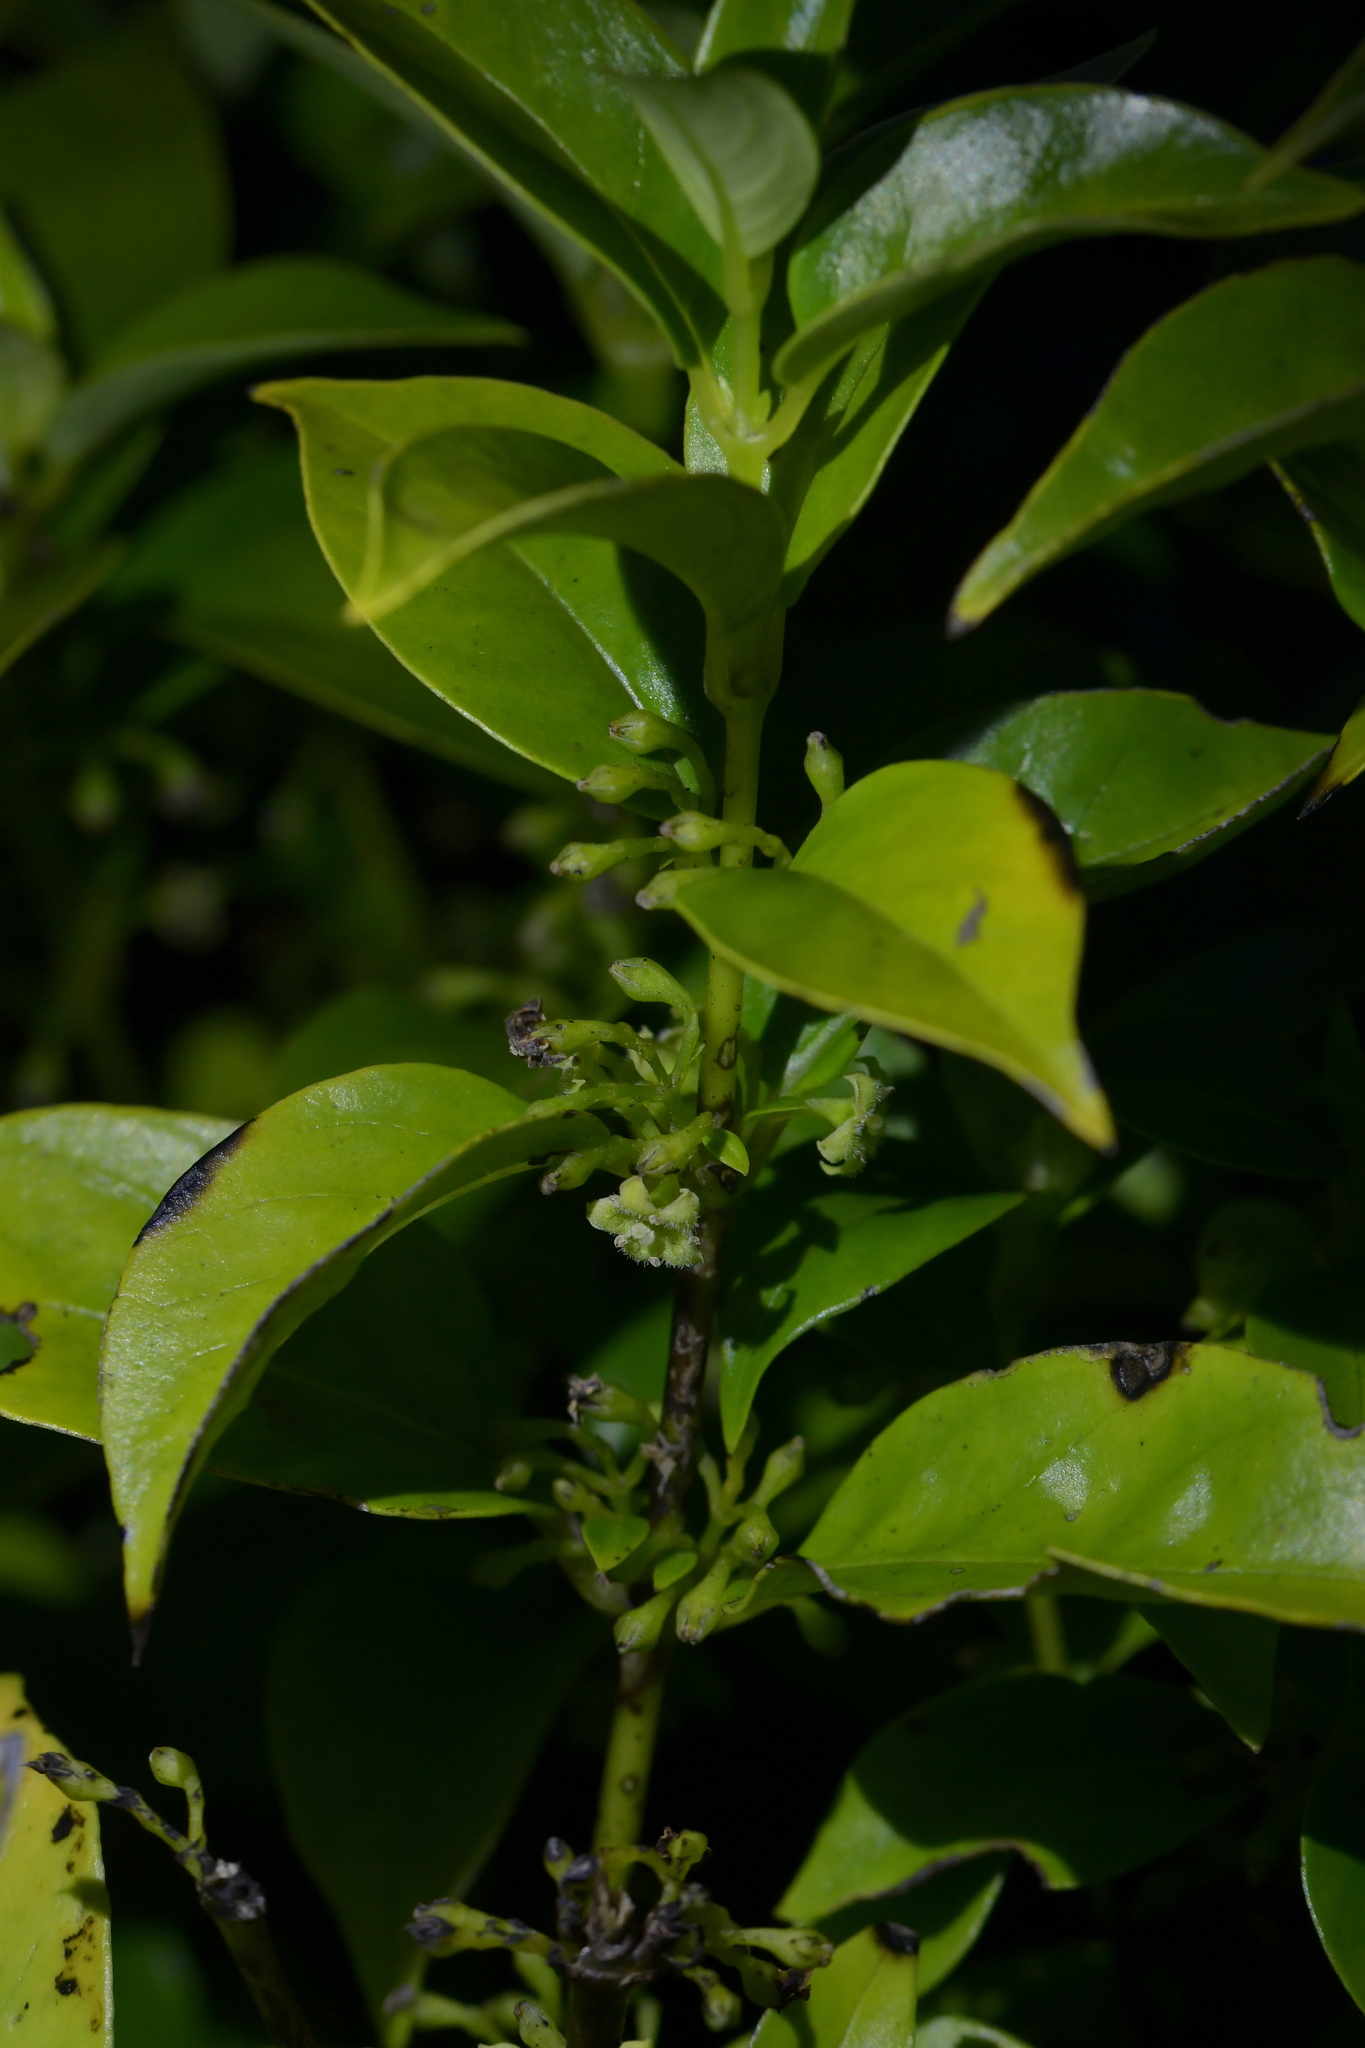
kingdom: Plantae
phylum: Tracheophyta
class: Magnoliopsida
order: Gentianales
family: Loganiaceae
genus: Geniostoma
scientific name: Geniostoma ligustrifolium
